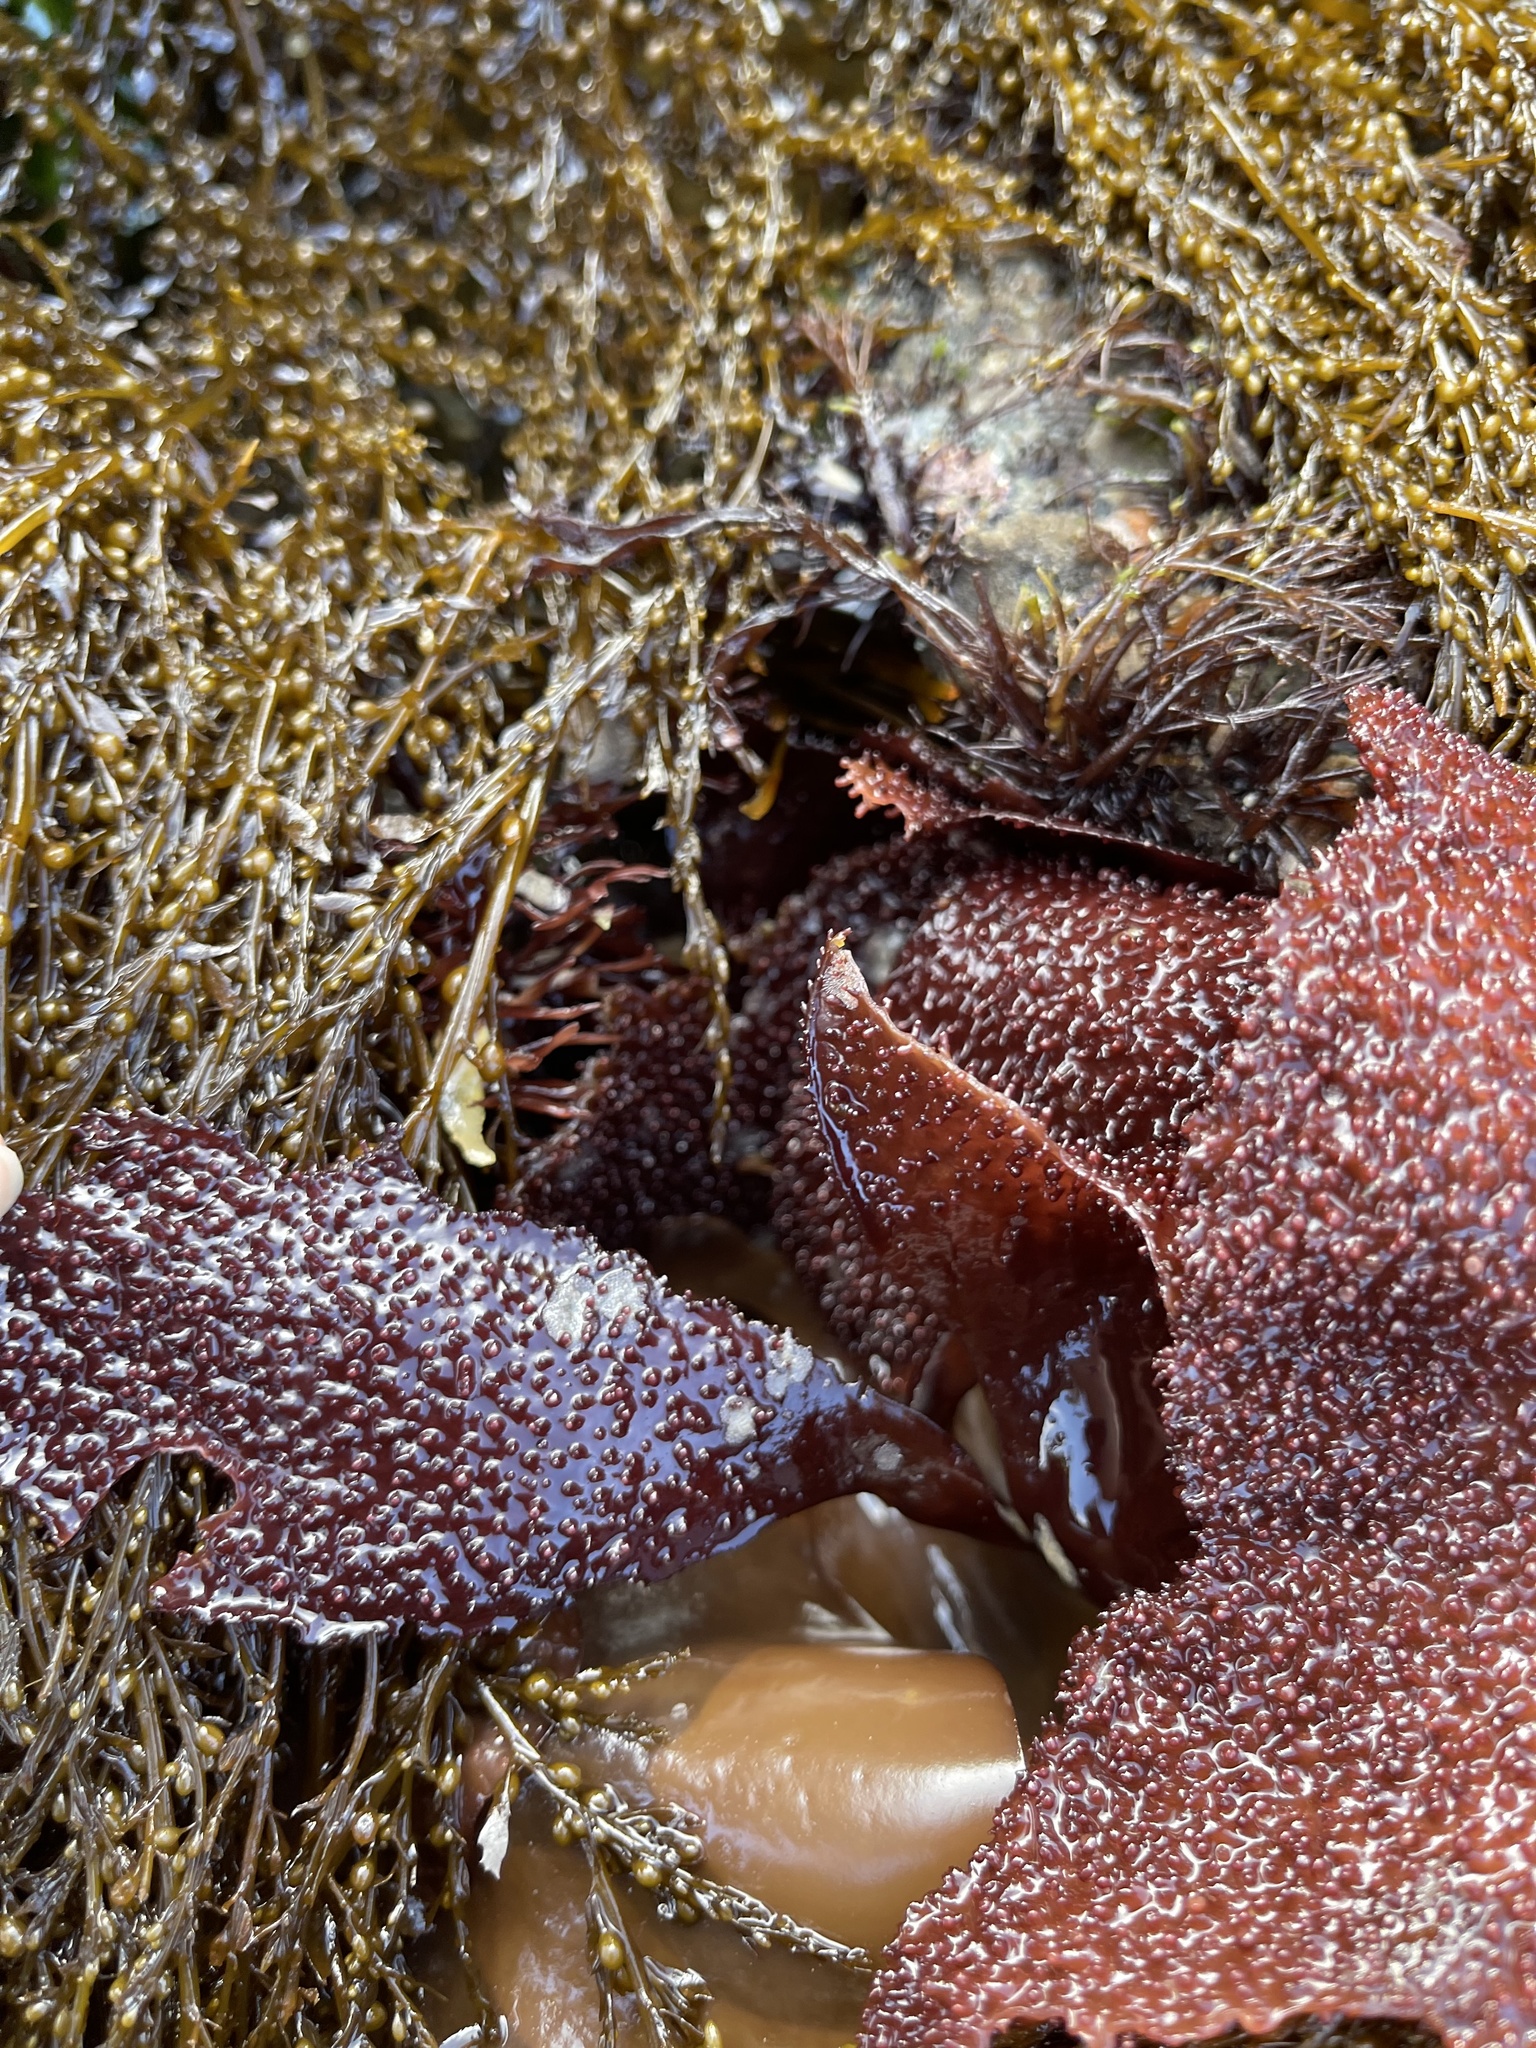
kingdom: Plantae
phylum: Rhodophyta
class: Florideophyceae
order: Gigartinales
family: Gigartinaceae
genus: Chondracanthus
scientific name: Chondracanthus exasperatus
